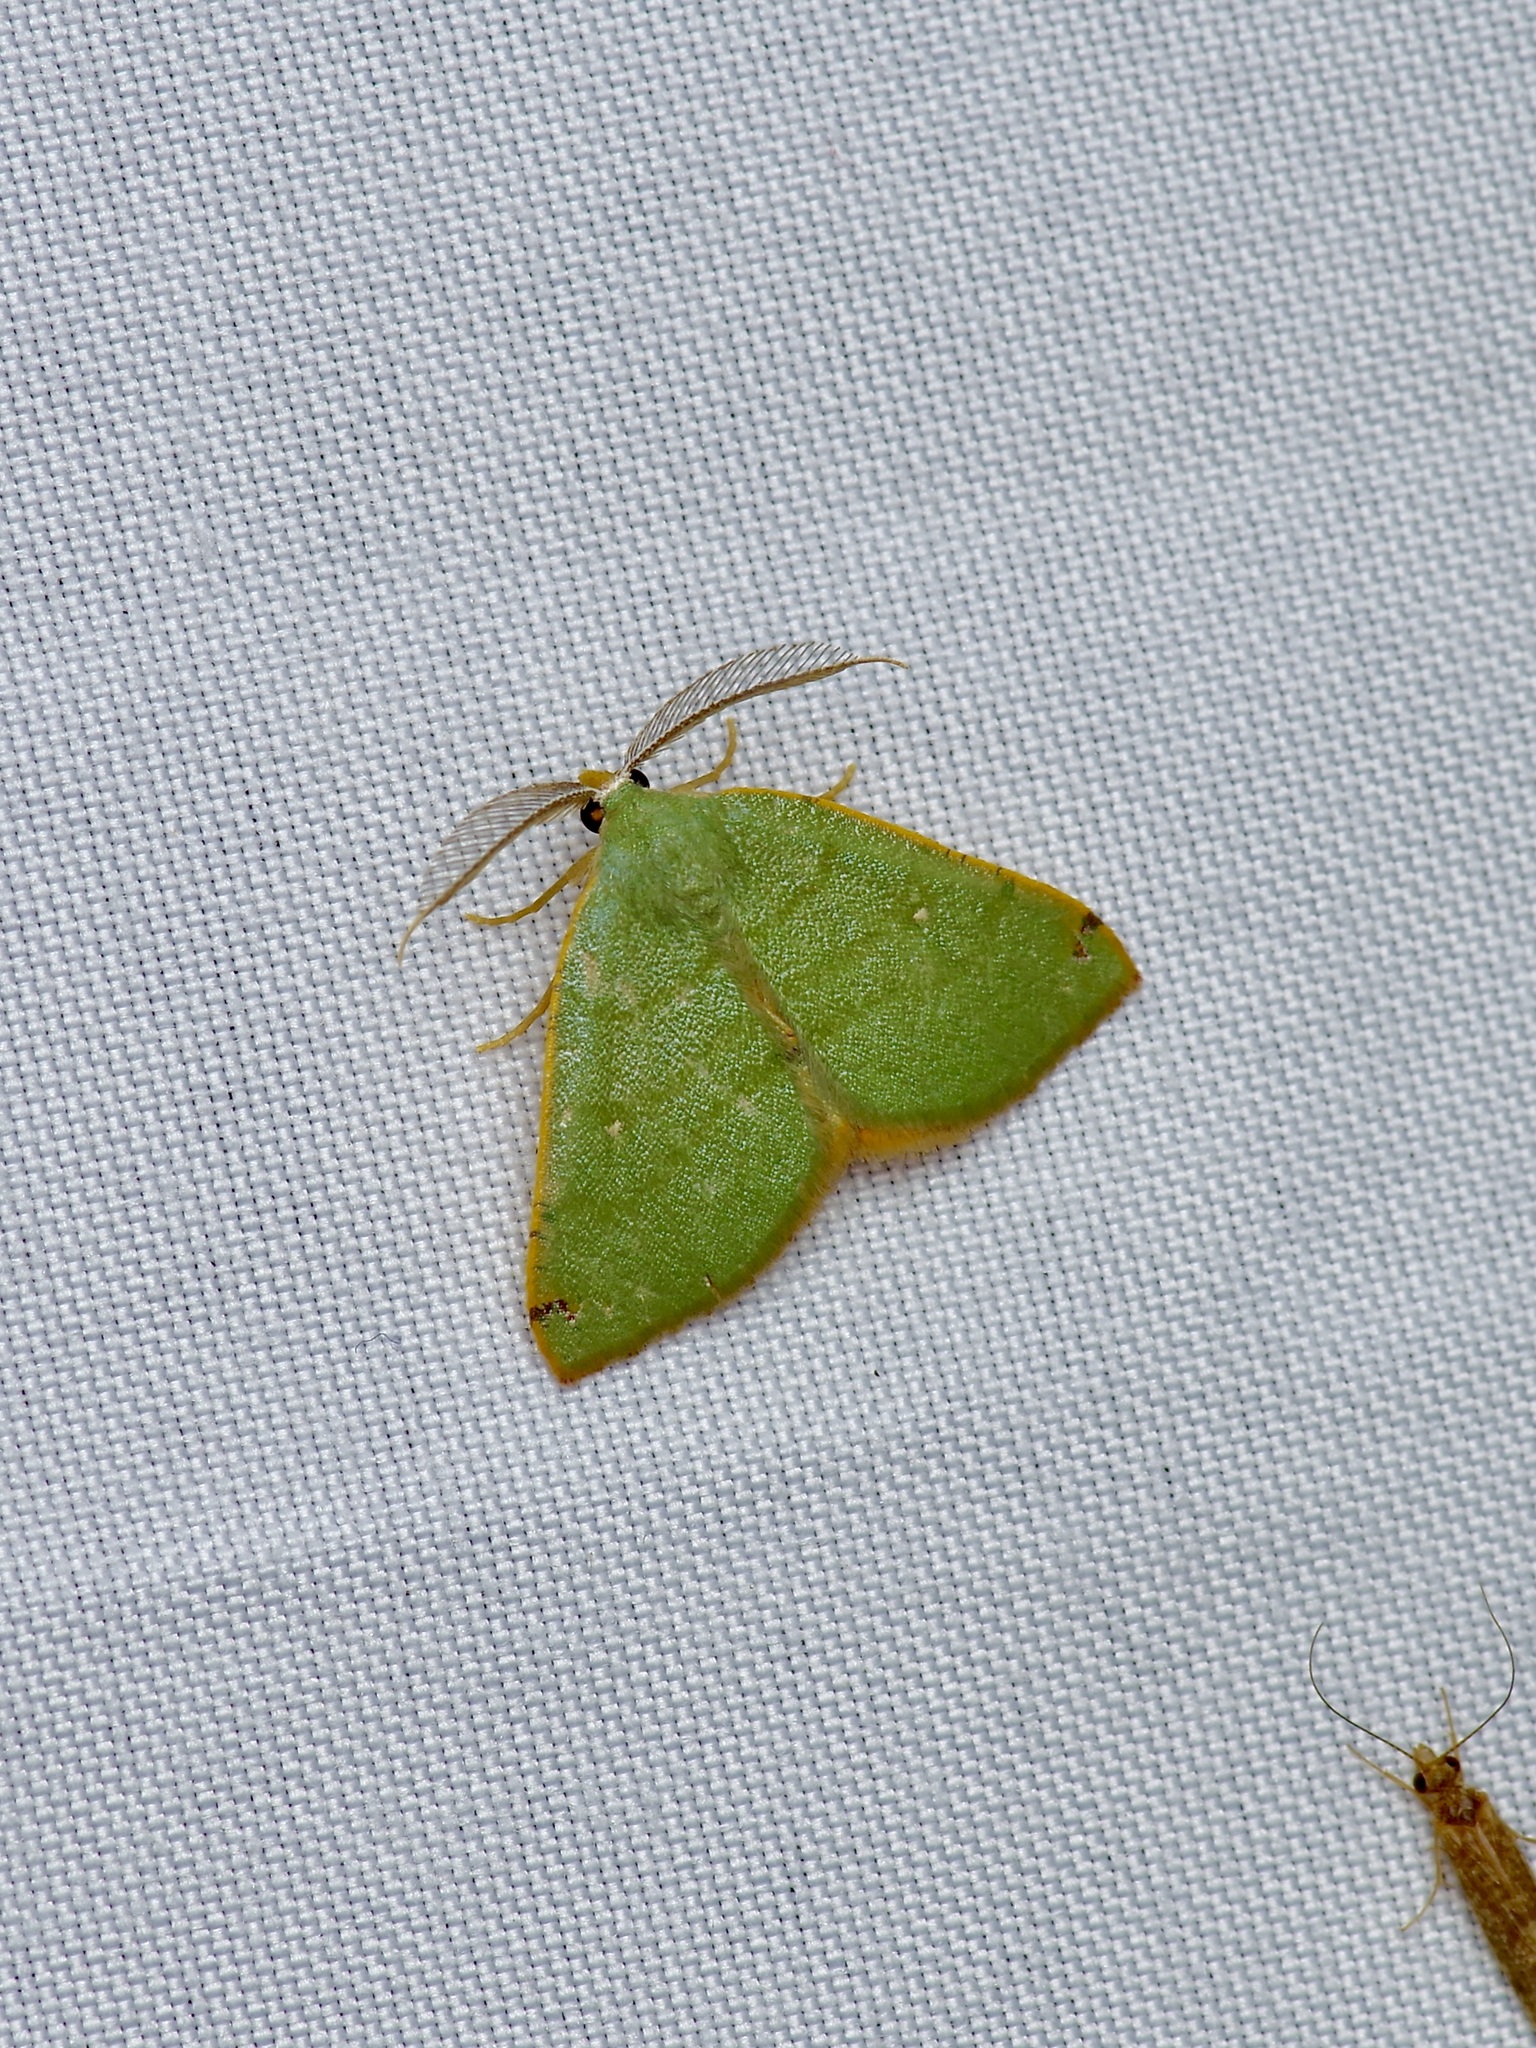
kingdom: Animalia
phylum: Arthropoda
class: Insecta
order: Lepidoptera
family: Geometridae
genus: Chloraspilates
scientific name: Chloraspilates bicoloraria
